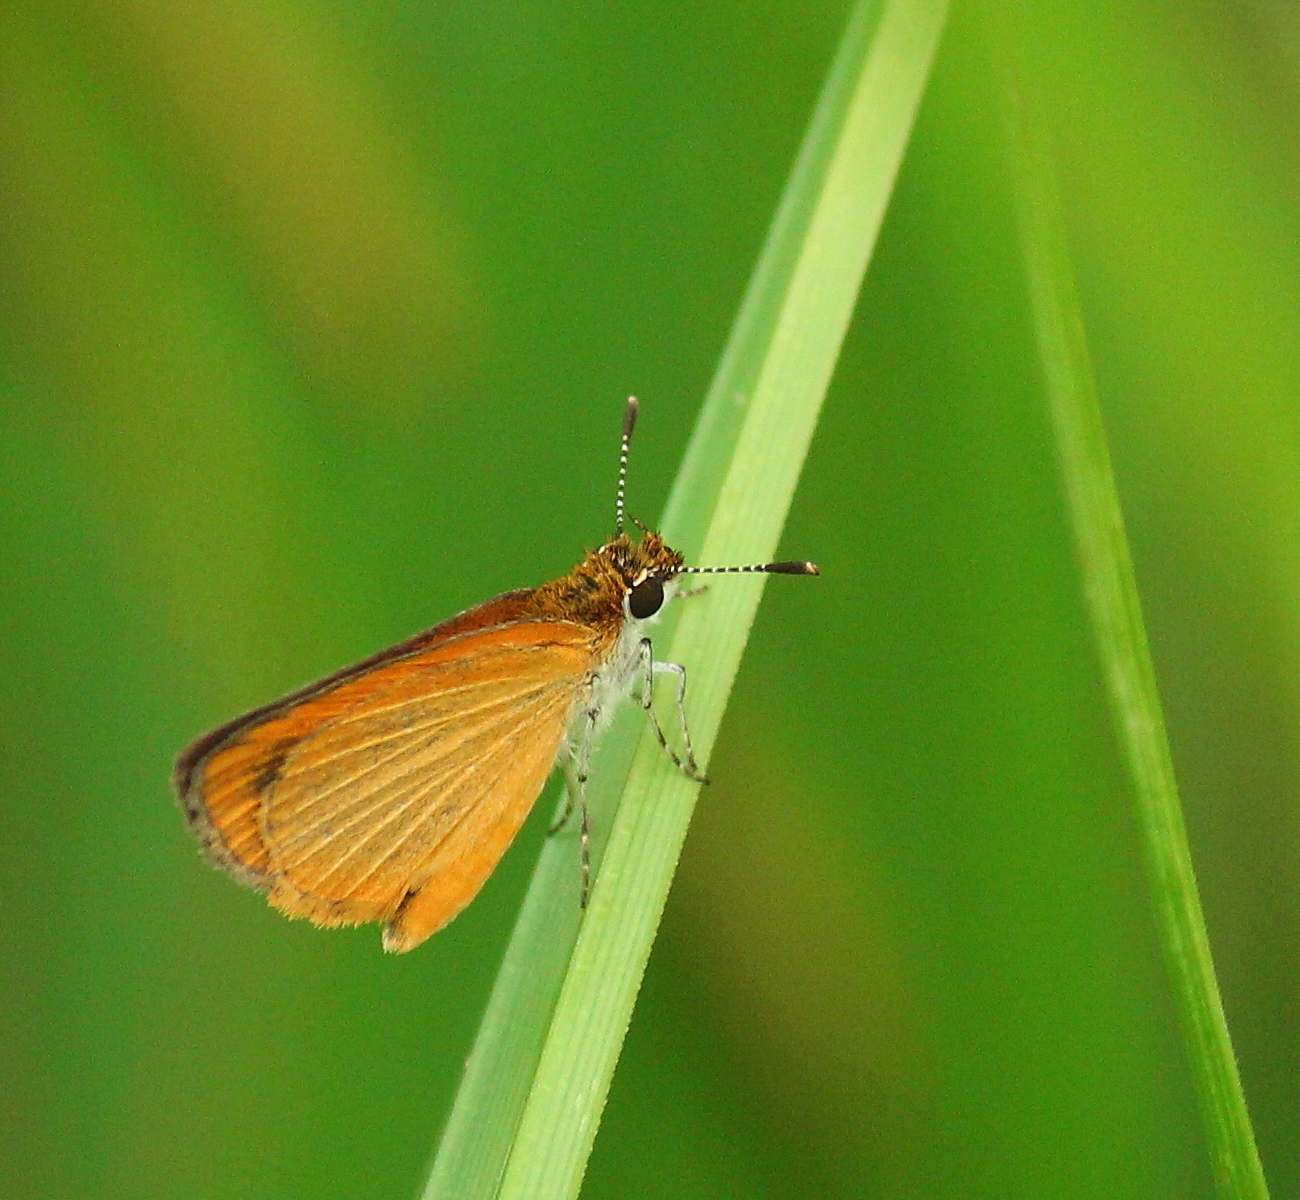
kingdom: Animalia
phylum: Arthropoda
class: Insecta
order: Lepidoptera
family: Hesperiidae
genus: Ancyloxypha
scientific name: Ancyloxypha numitor
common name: Least skipper
